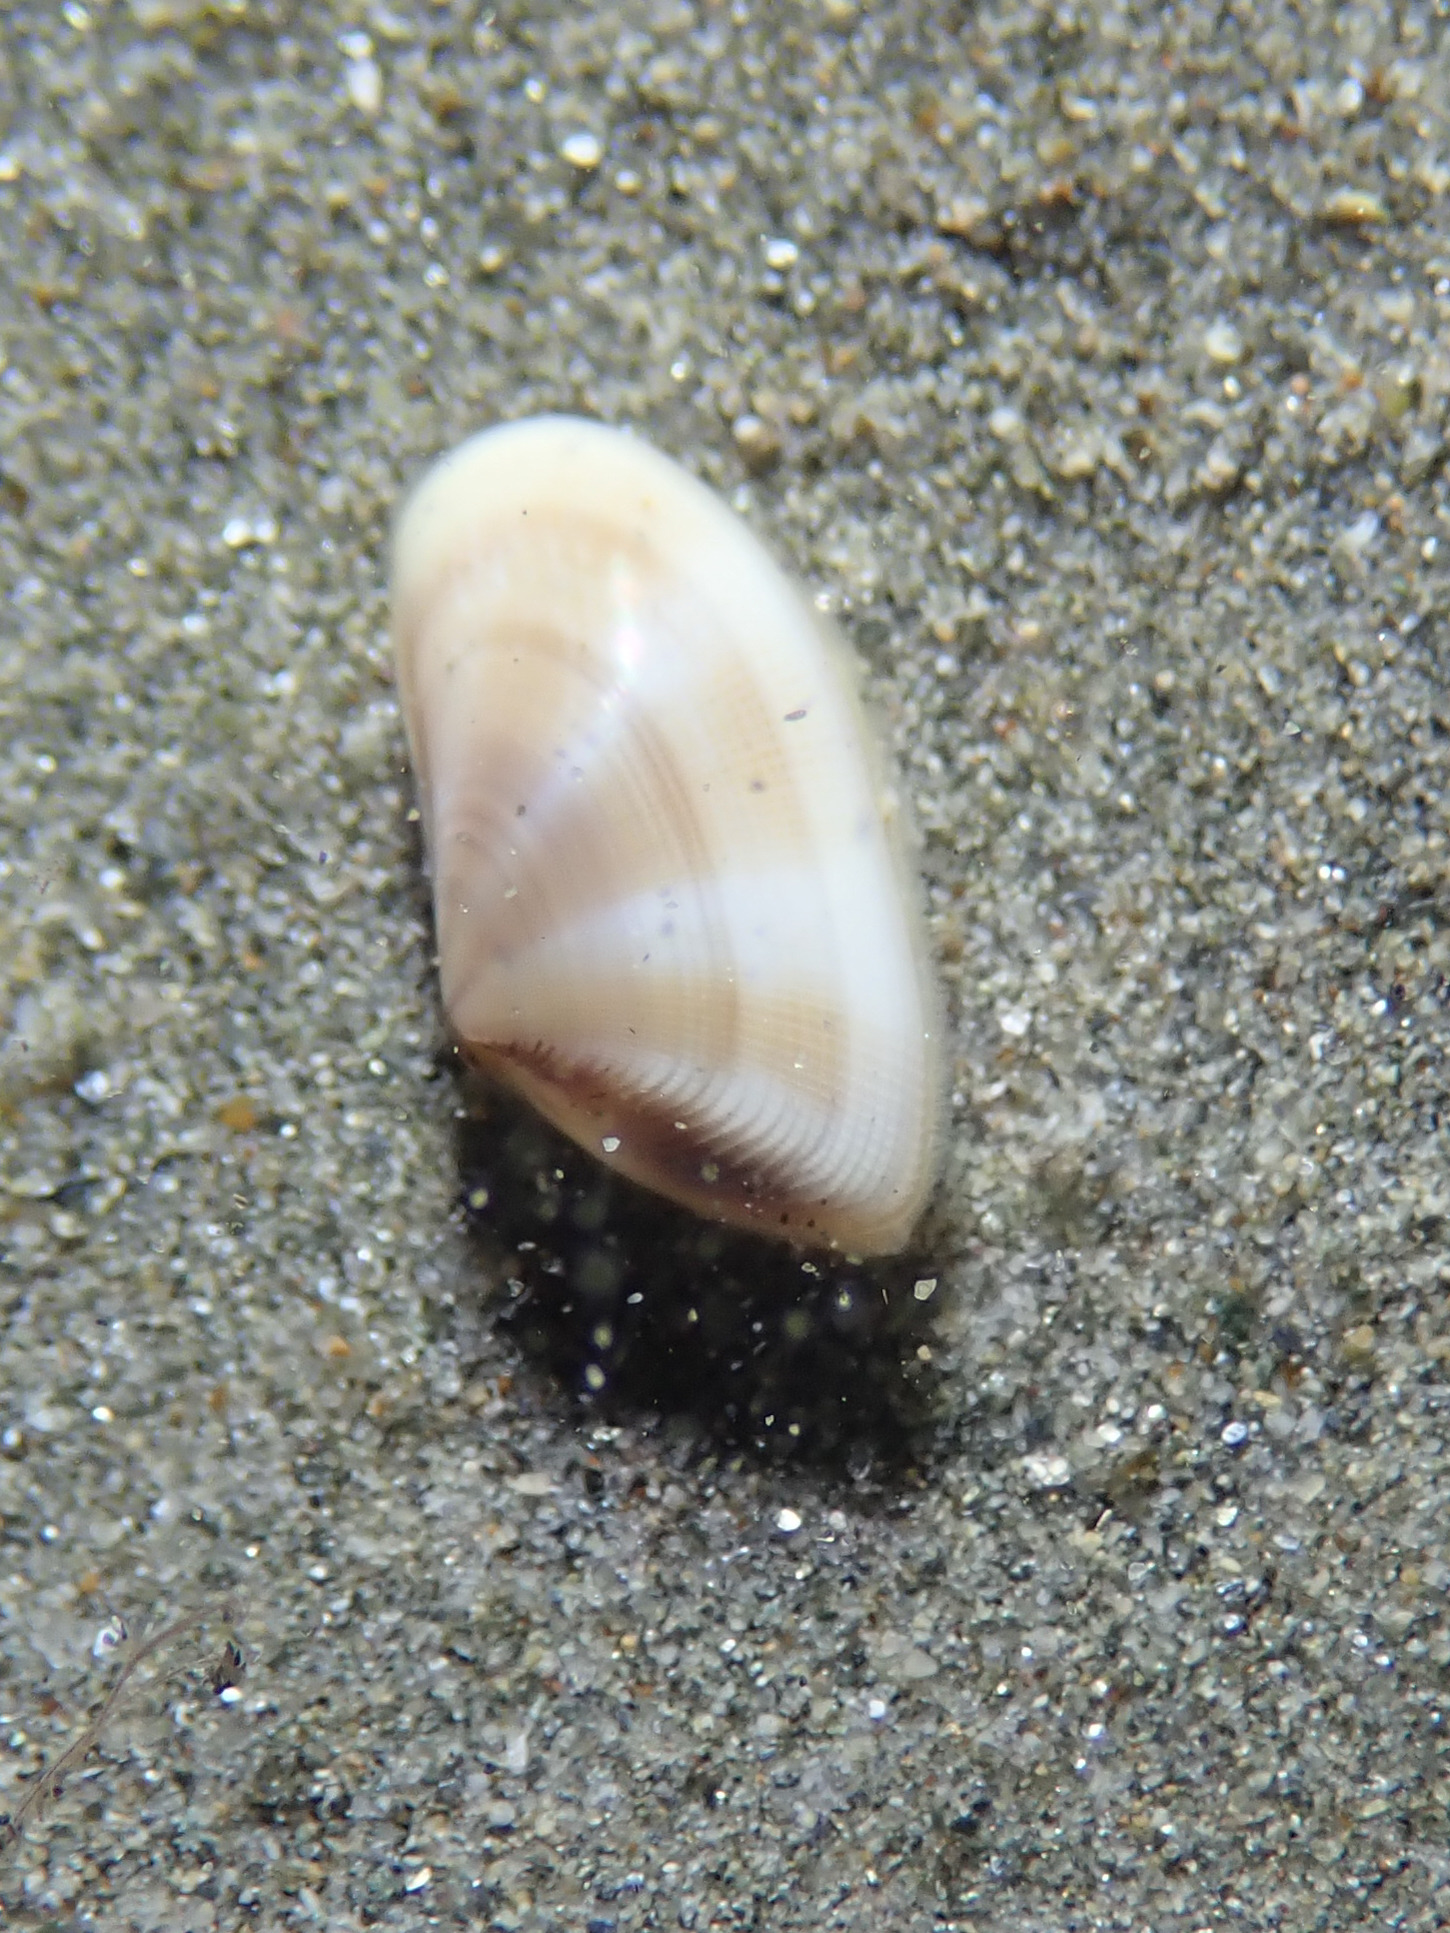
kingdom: Animalia
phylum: Mollusca
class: Bivalvia
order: Cardiida
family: Donacidae
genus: Donax
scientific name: Donax semistriatus
